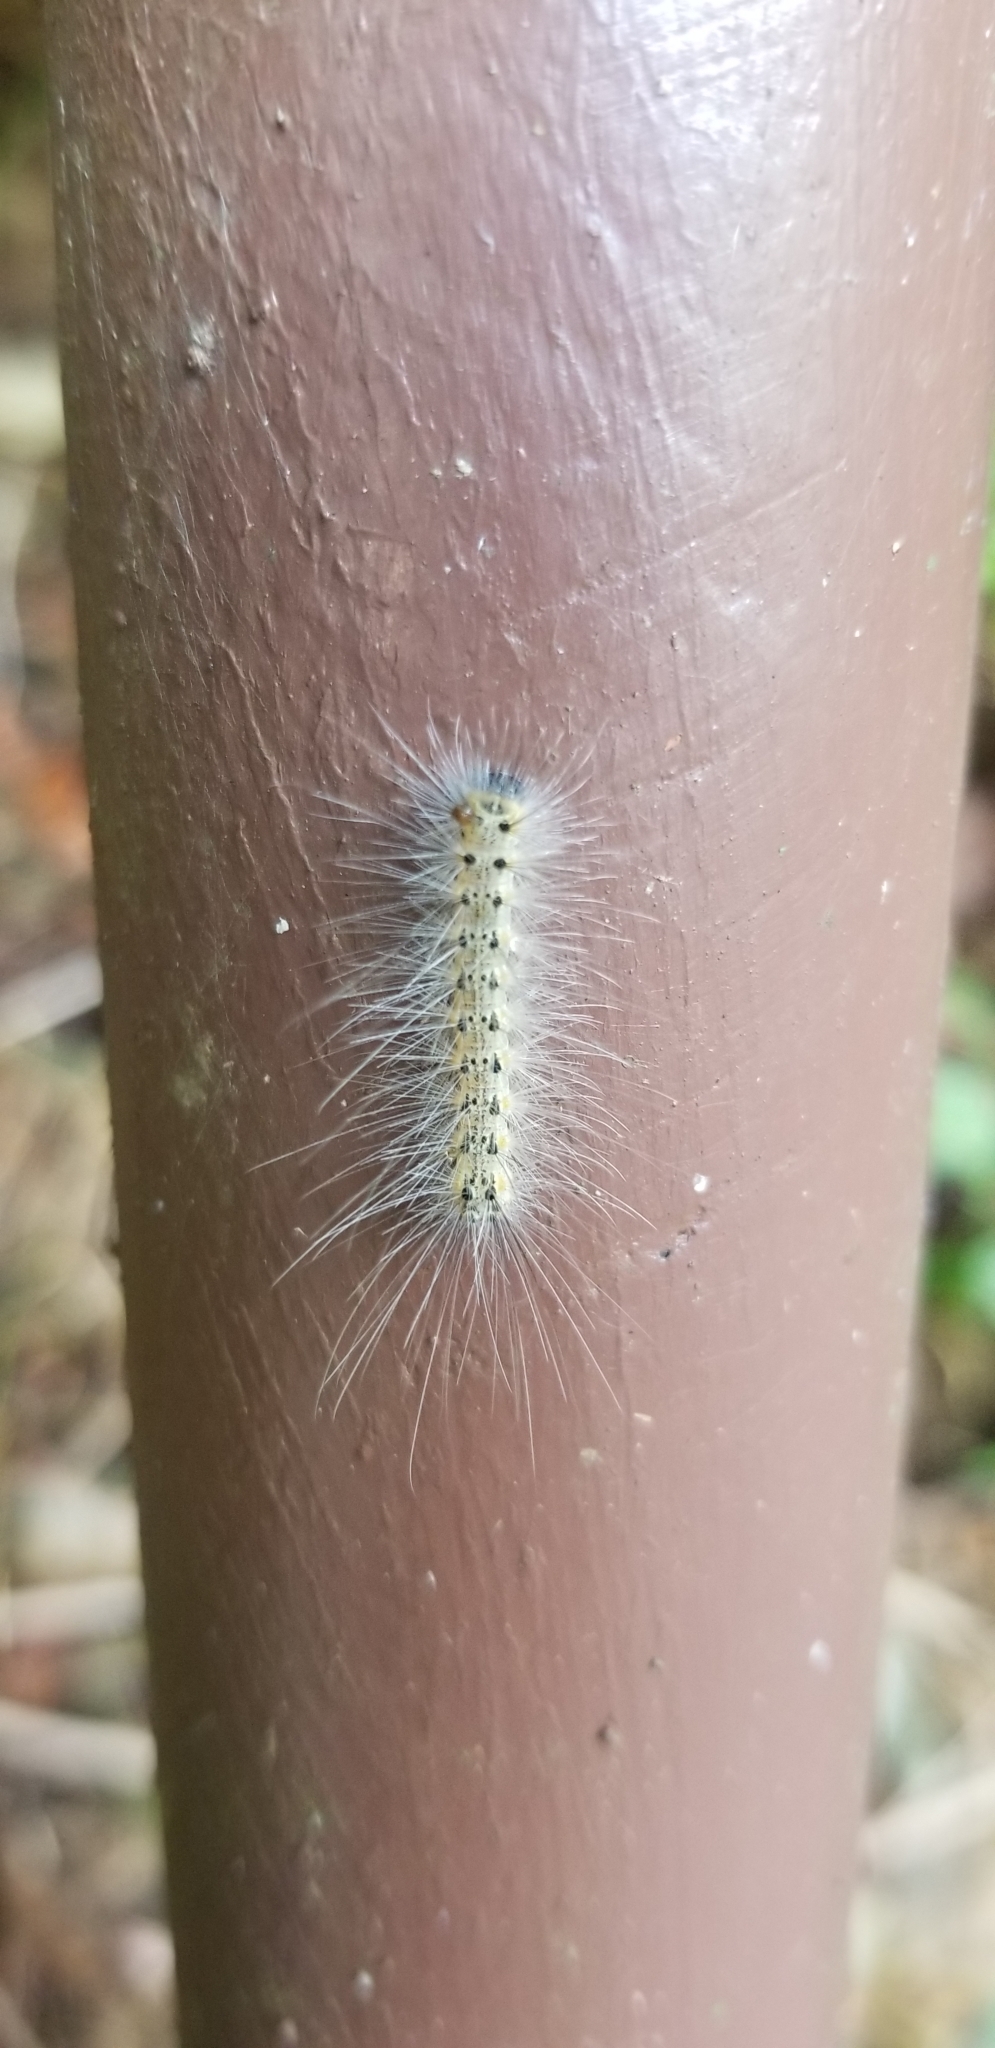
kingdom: Animalia
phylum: Arthropoda
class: Insecta
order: Lepidoptera
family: Erebidae
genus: Hyphantria
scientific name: Hyphantria cunea
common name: American white moth
